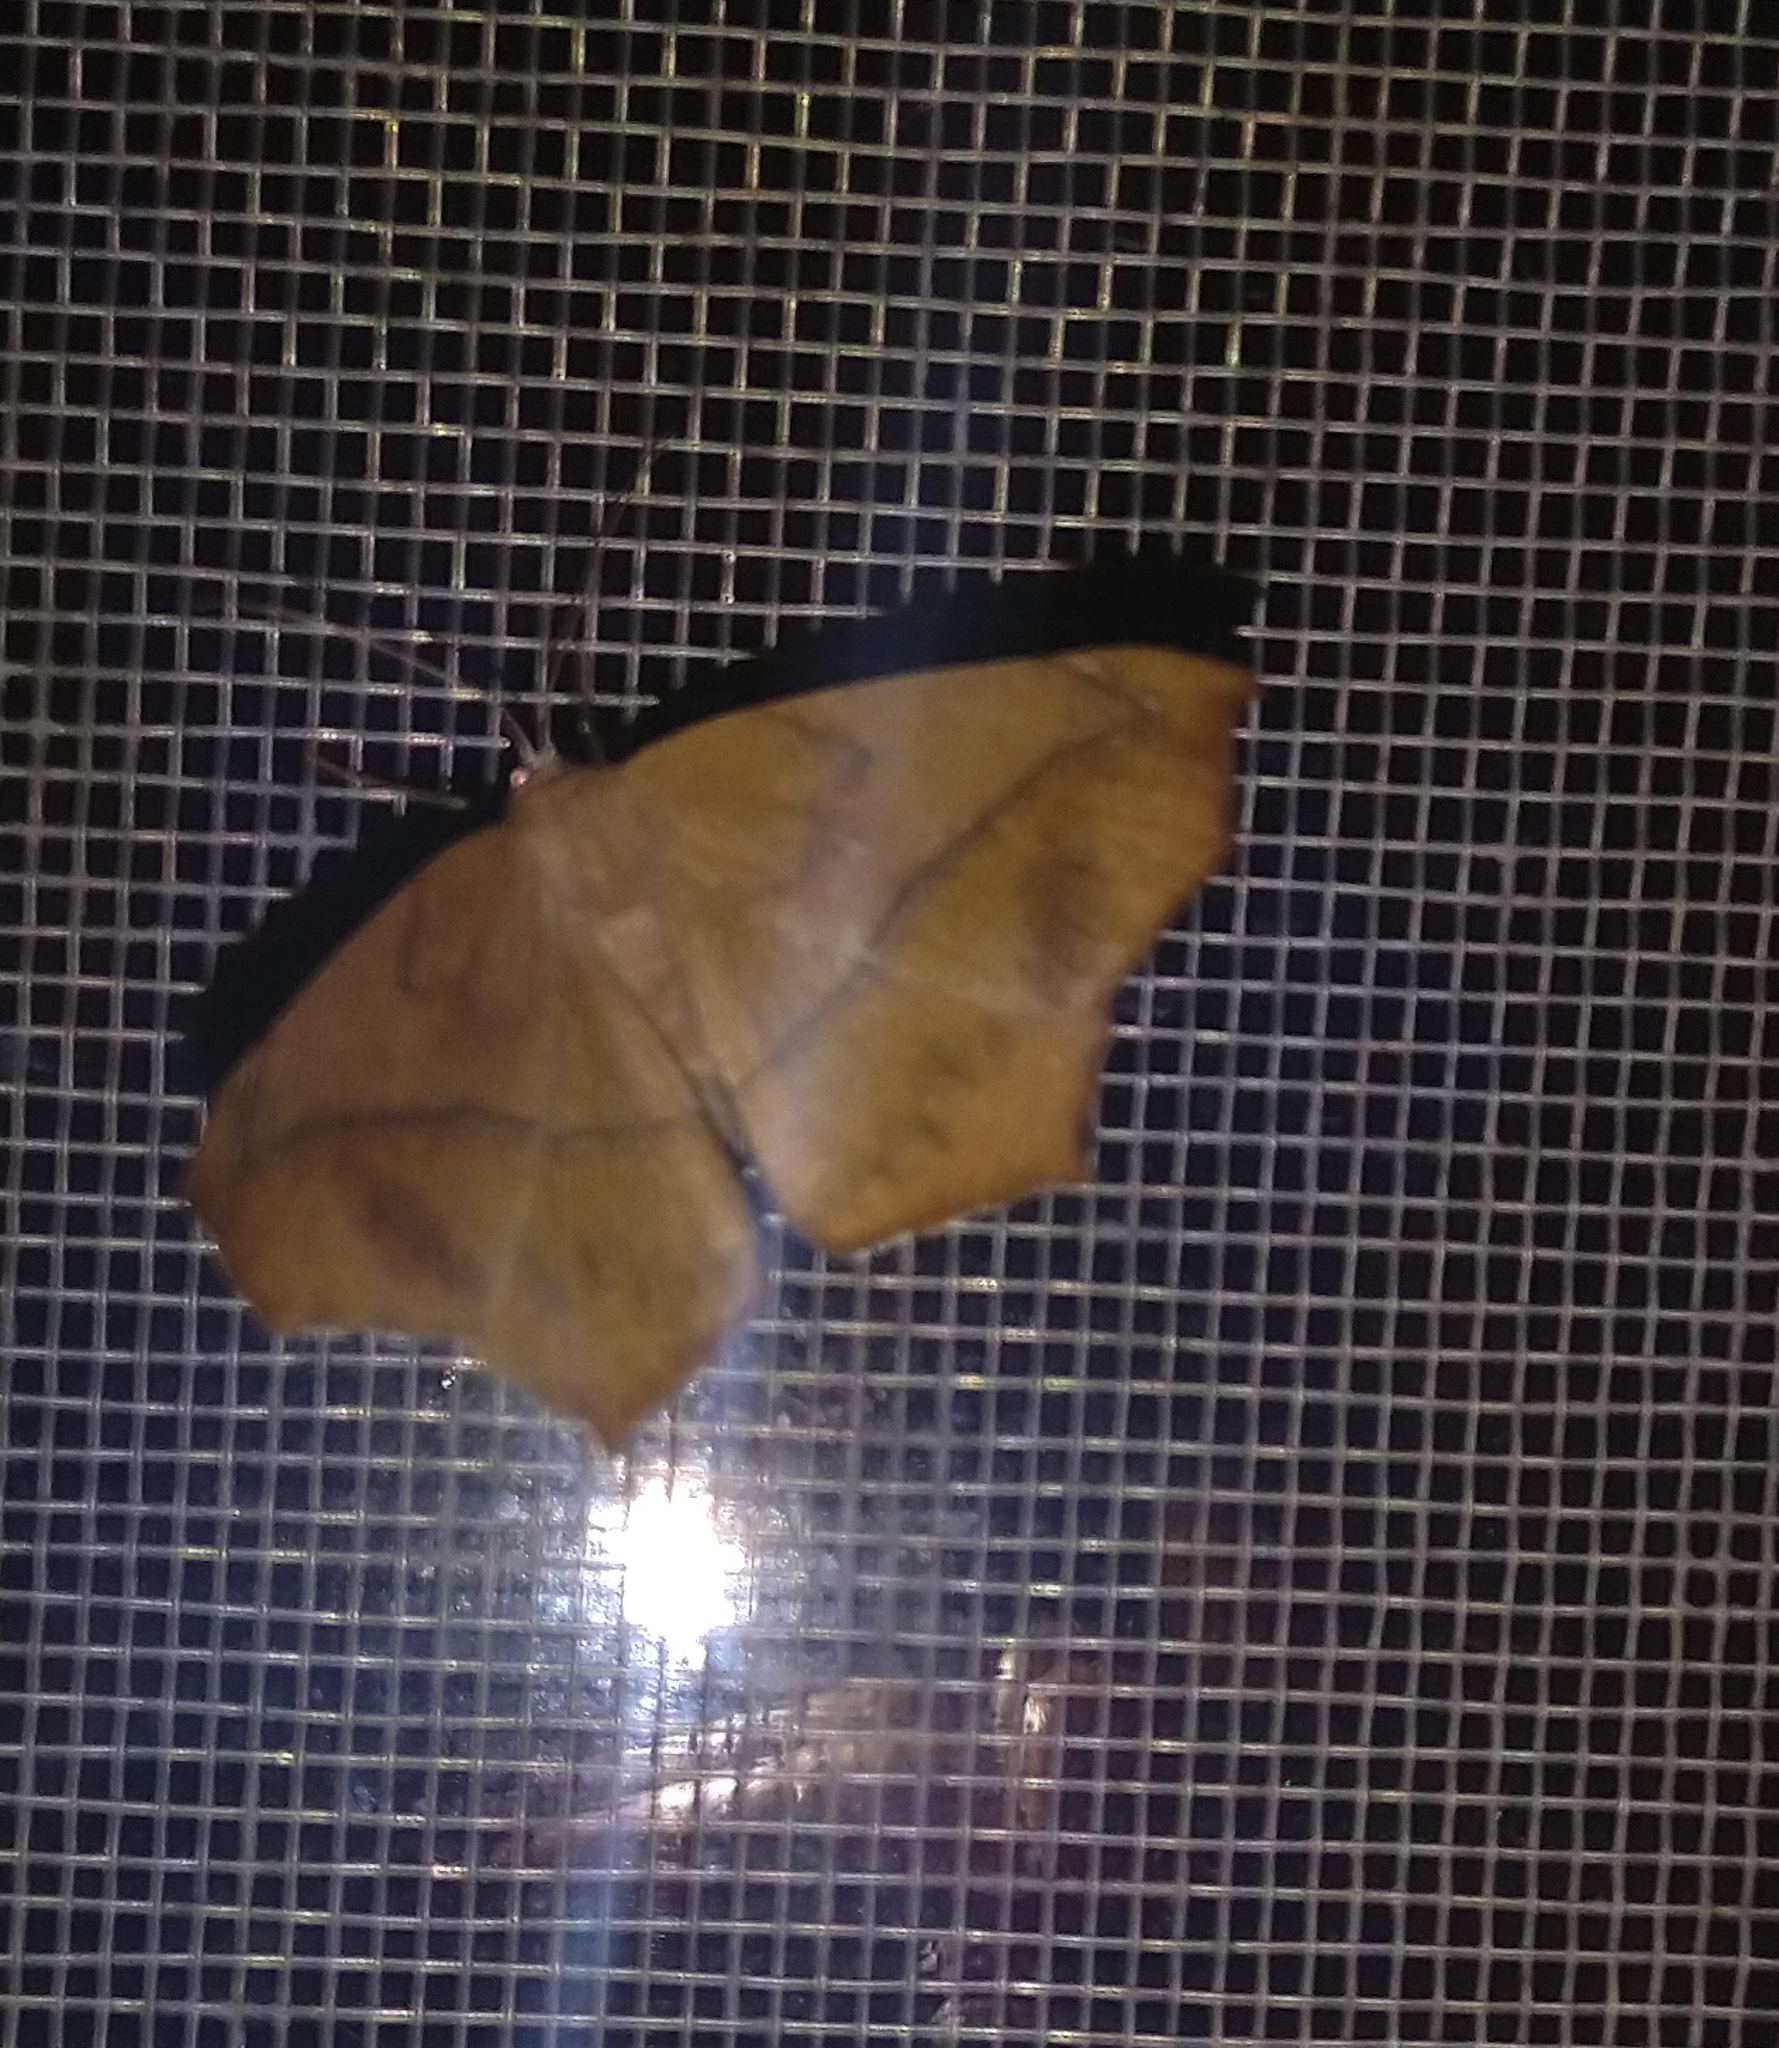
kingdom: Animalia
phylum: Arthropoda
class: Insecta
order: Lepidoptera
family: Geometridae
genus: Prochoerodes
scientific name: Prochoerodes lineola
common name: Large maple spanworm
